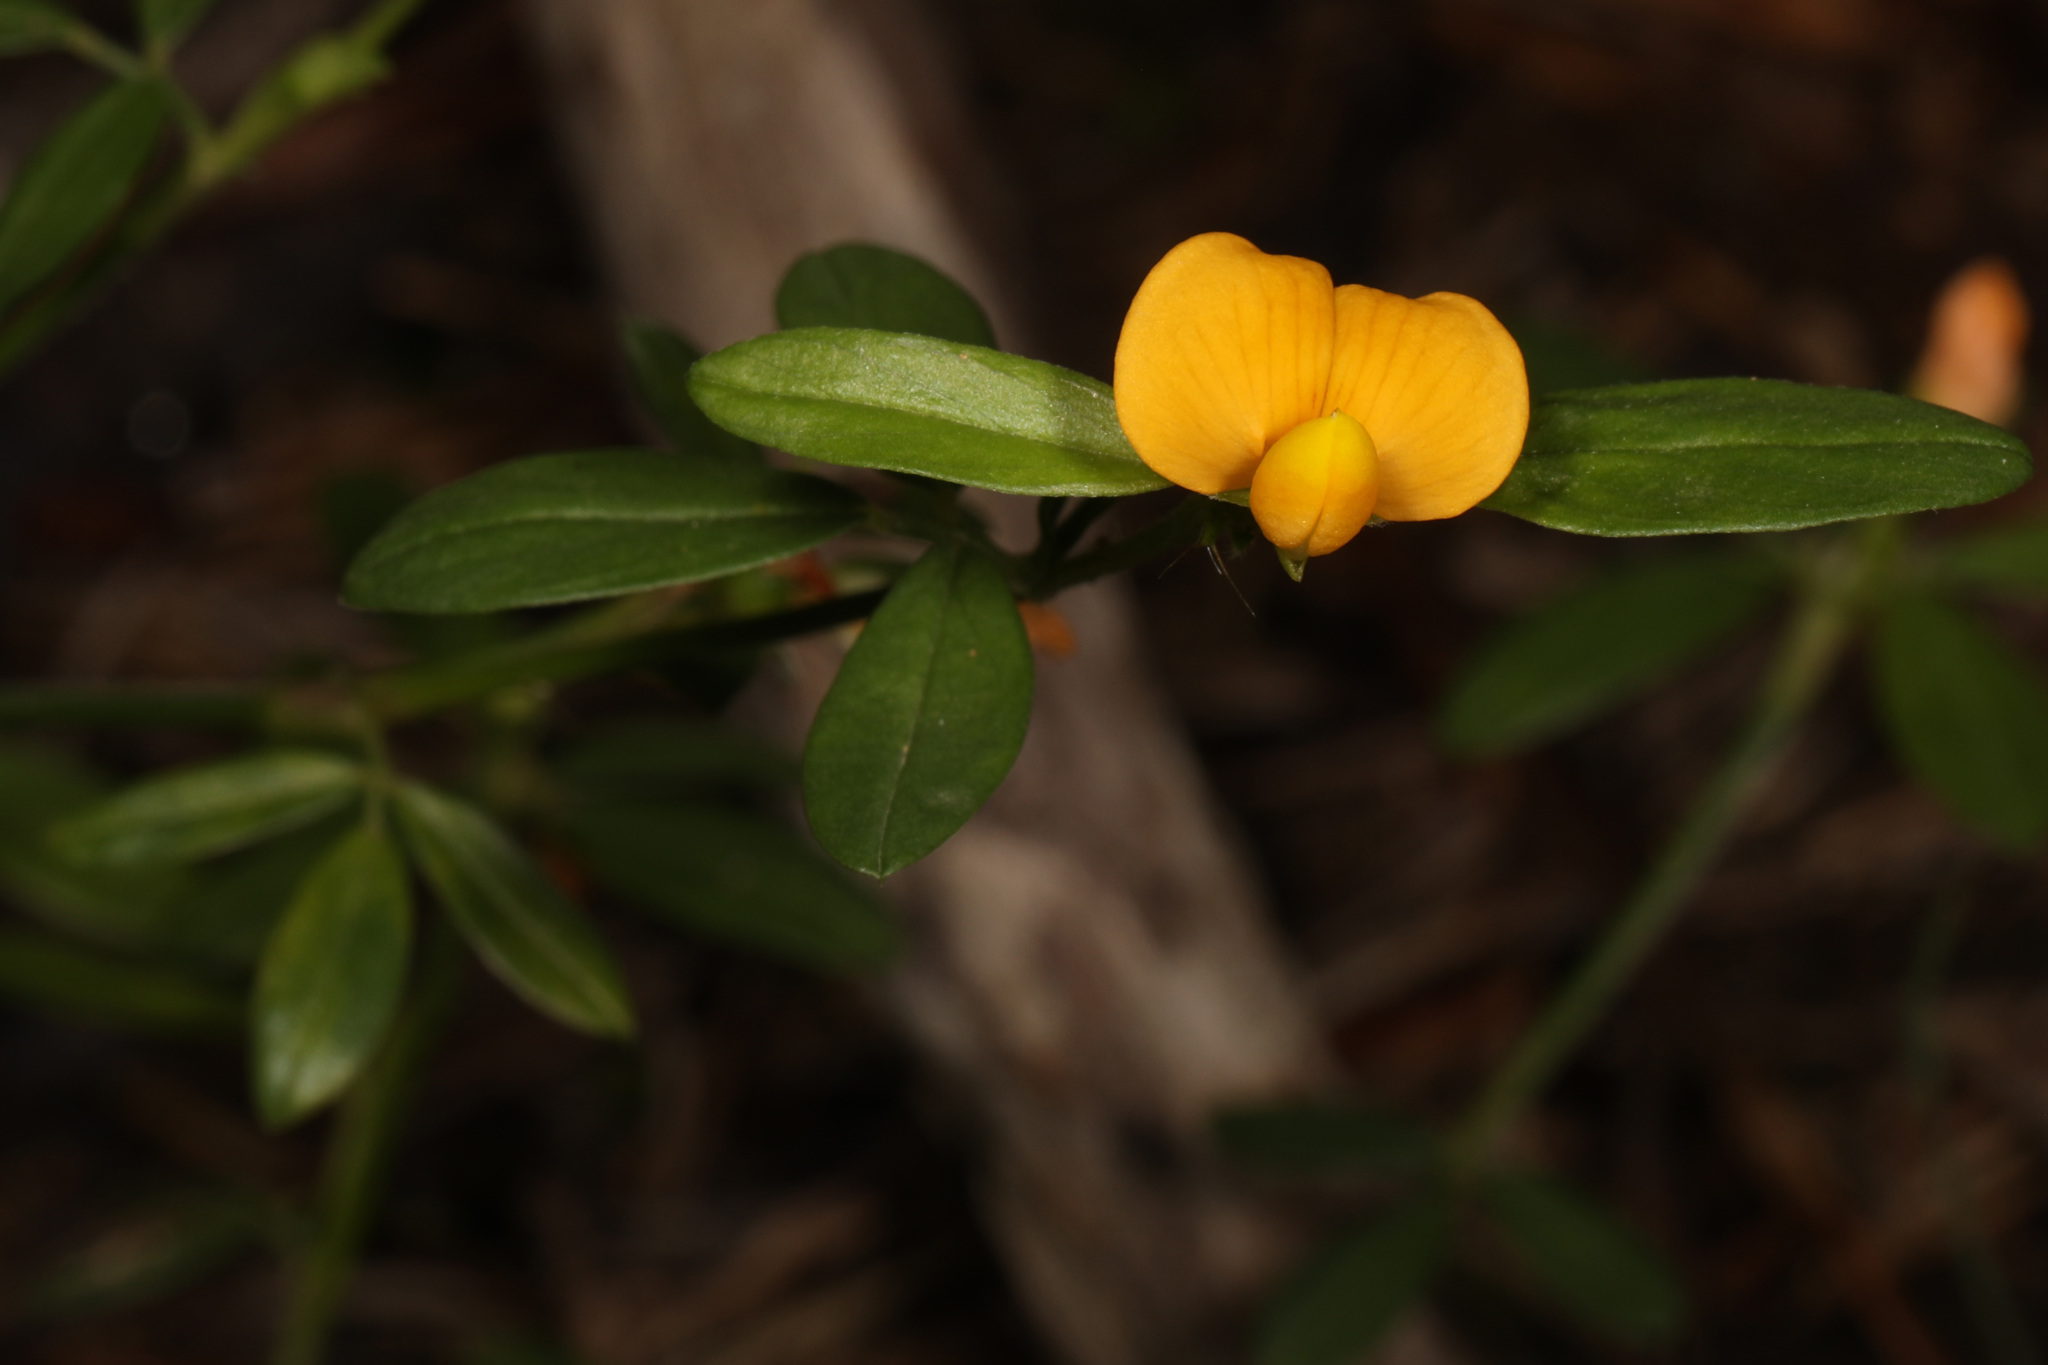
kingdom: Plantae
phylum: Tracheophyta
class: Magnoliopsida
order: Fabales
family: Fabaceae
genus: Stylosanthes
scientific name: Stylosanthes biflora
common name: Two-flower pencil-flower
